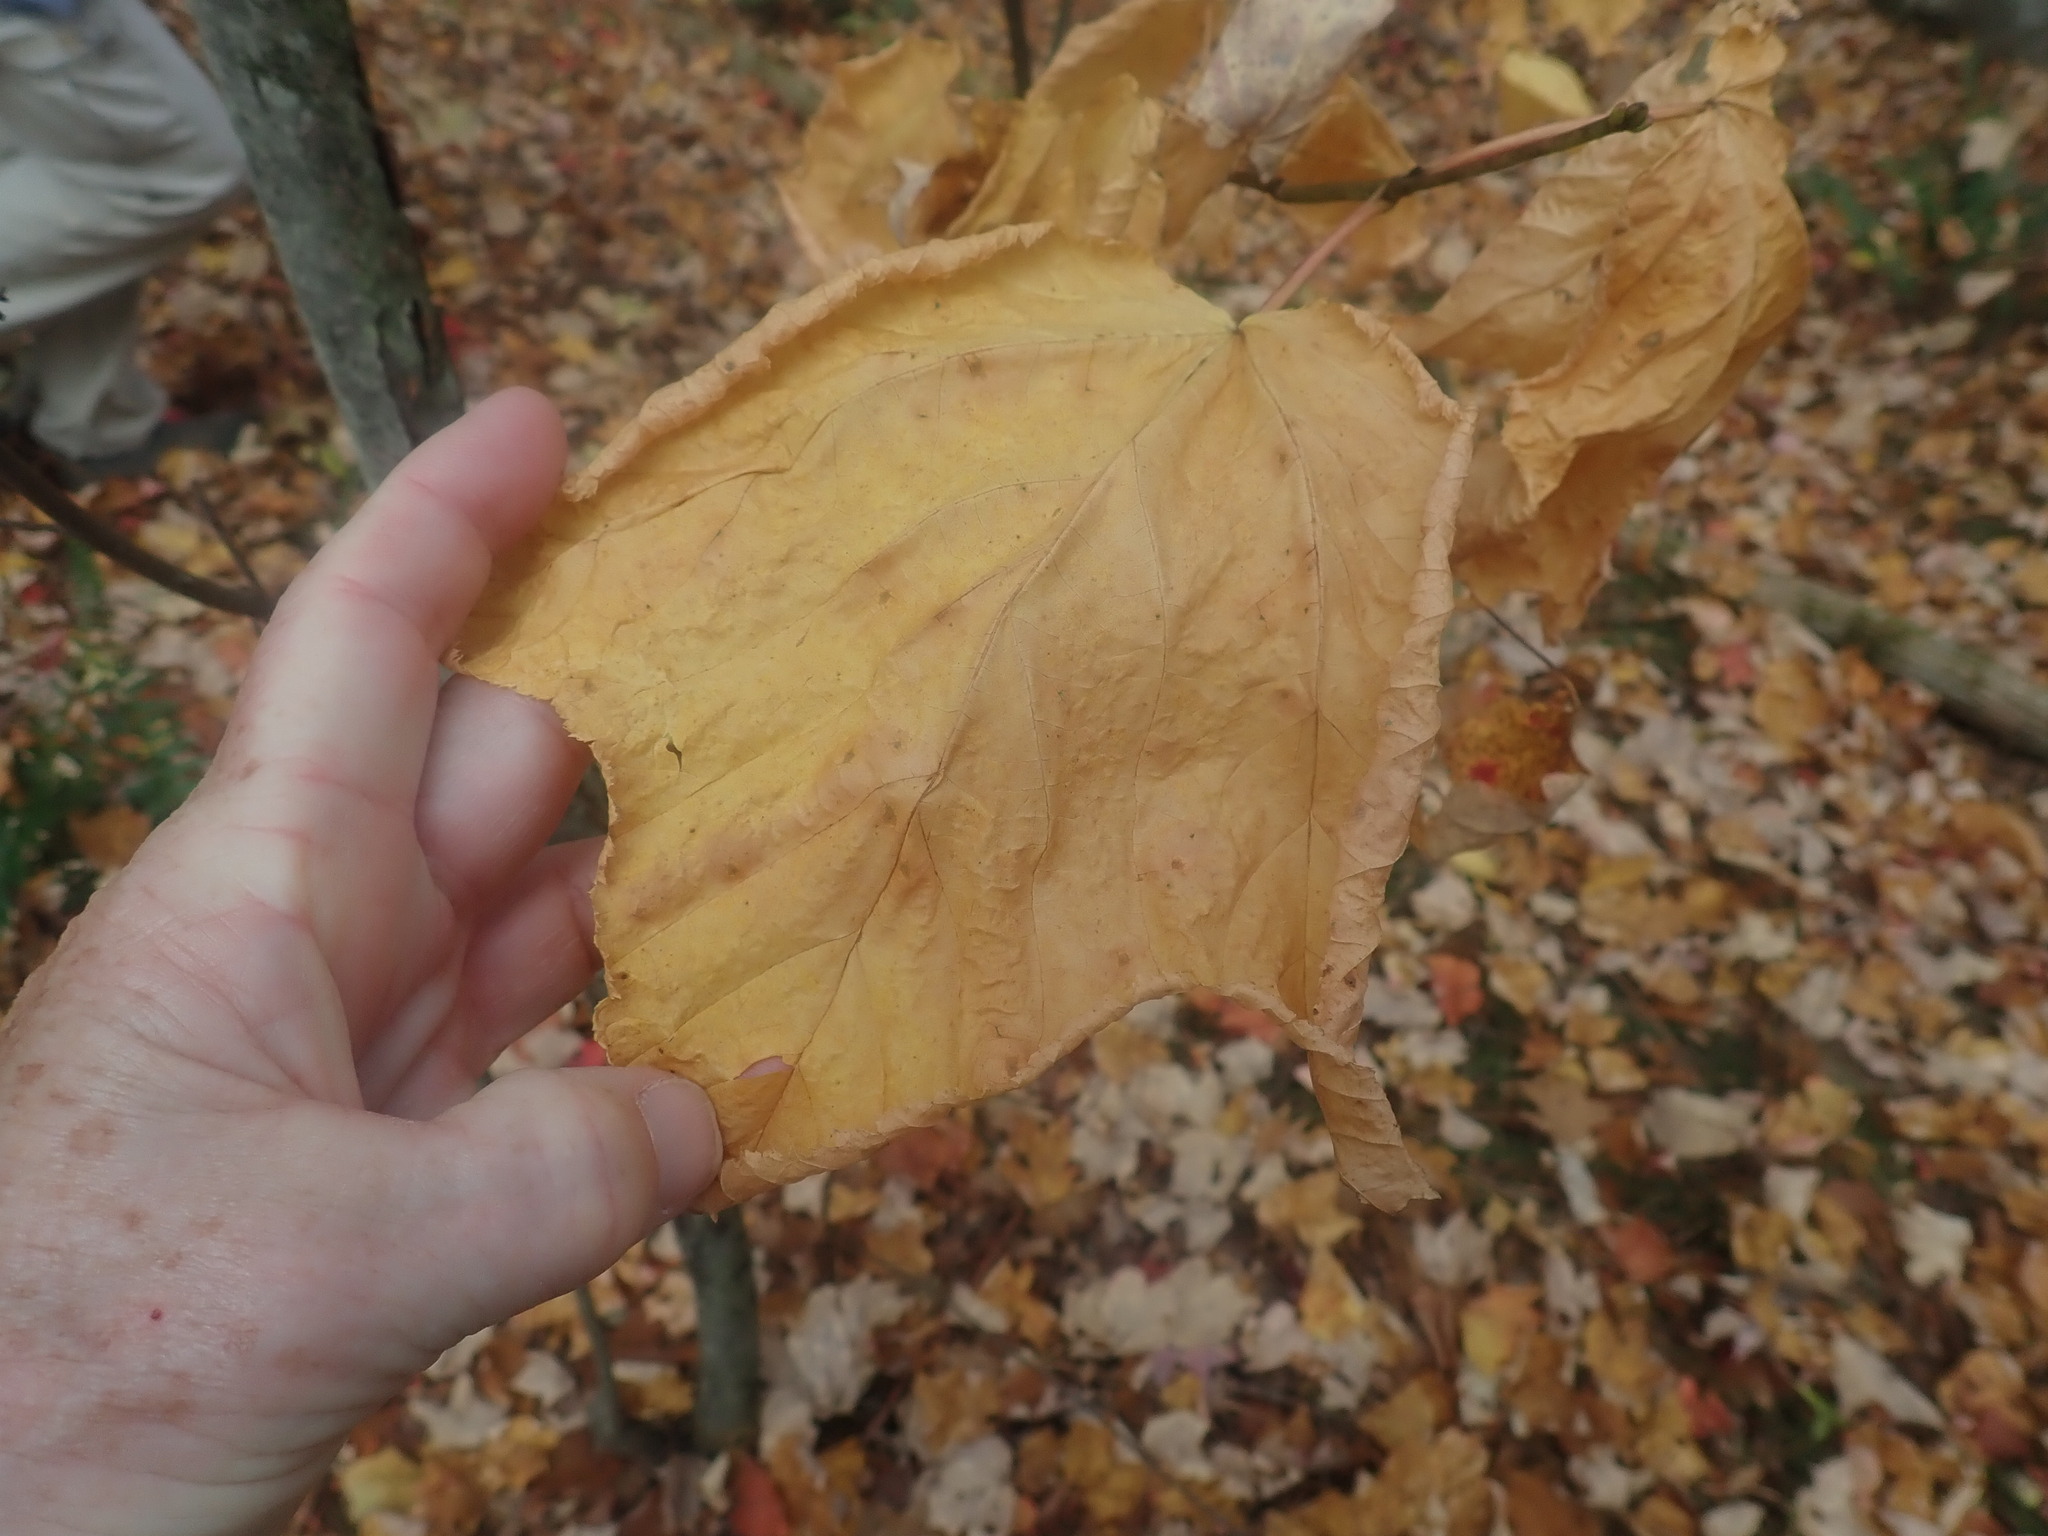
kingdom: Plantae
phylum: Tracheophyta
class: Magnoliopsida
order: Sapindales
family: Sapindaceae
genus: Acer
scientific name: Acer pensylvanicum
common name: Moosewood
